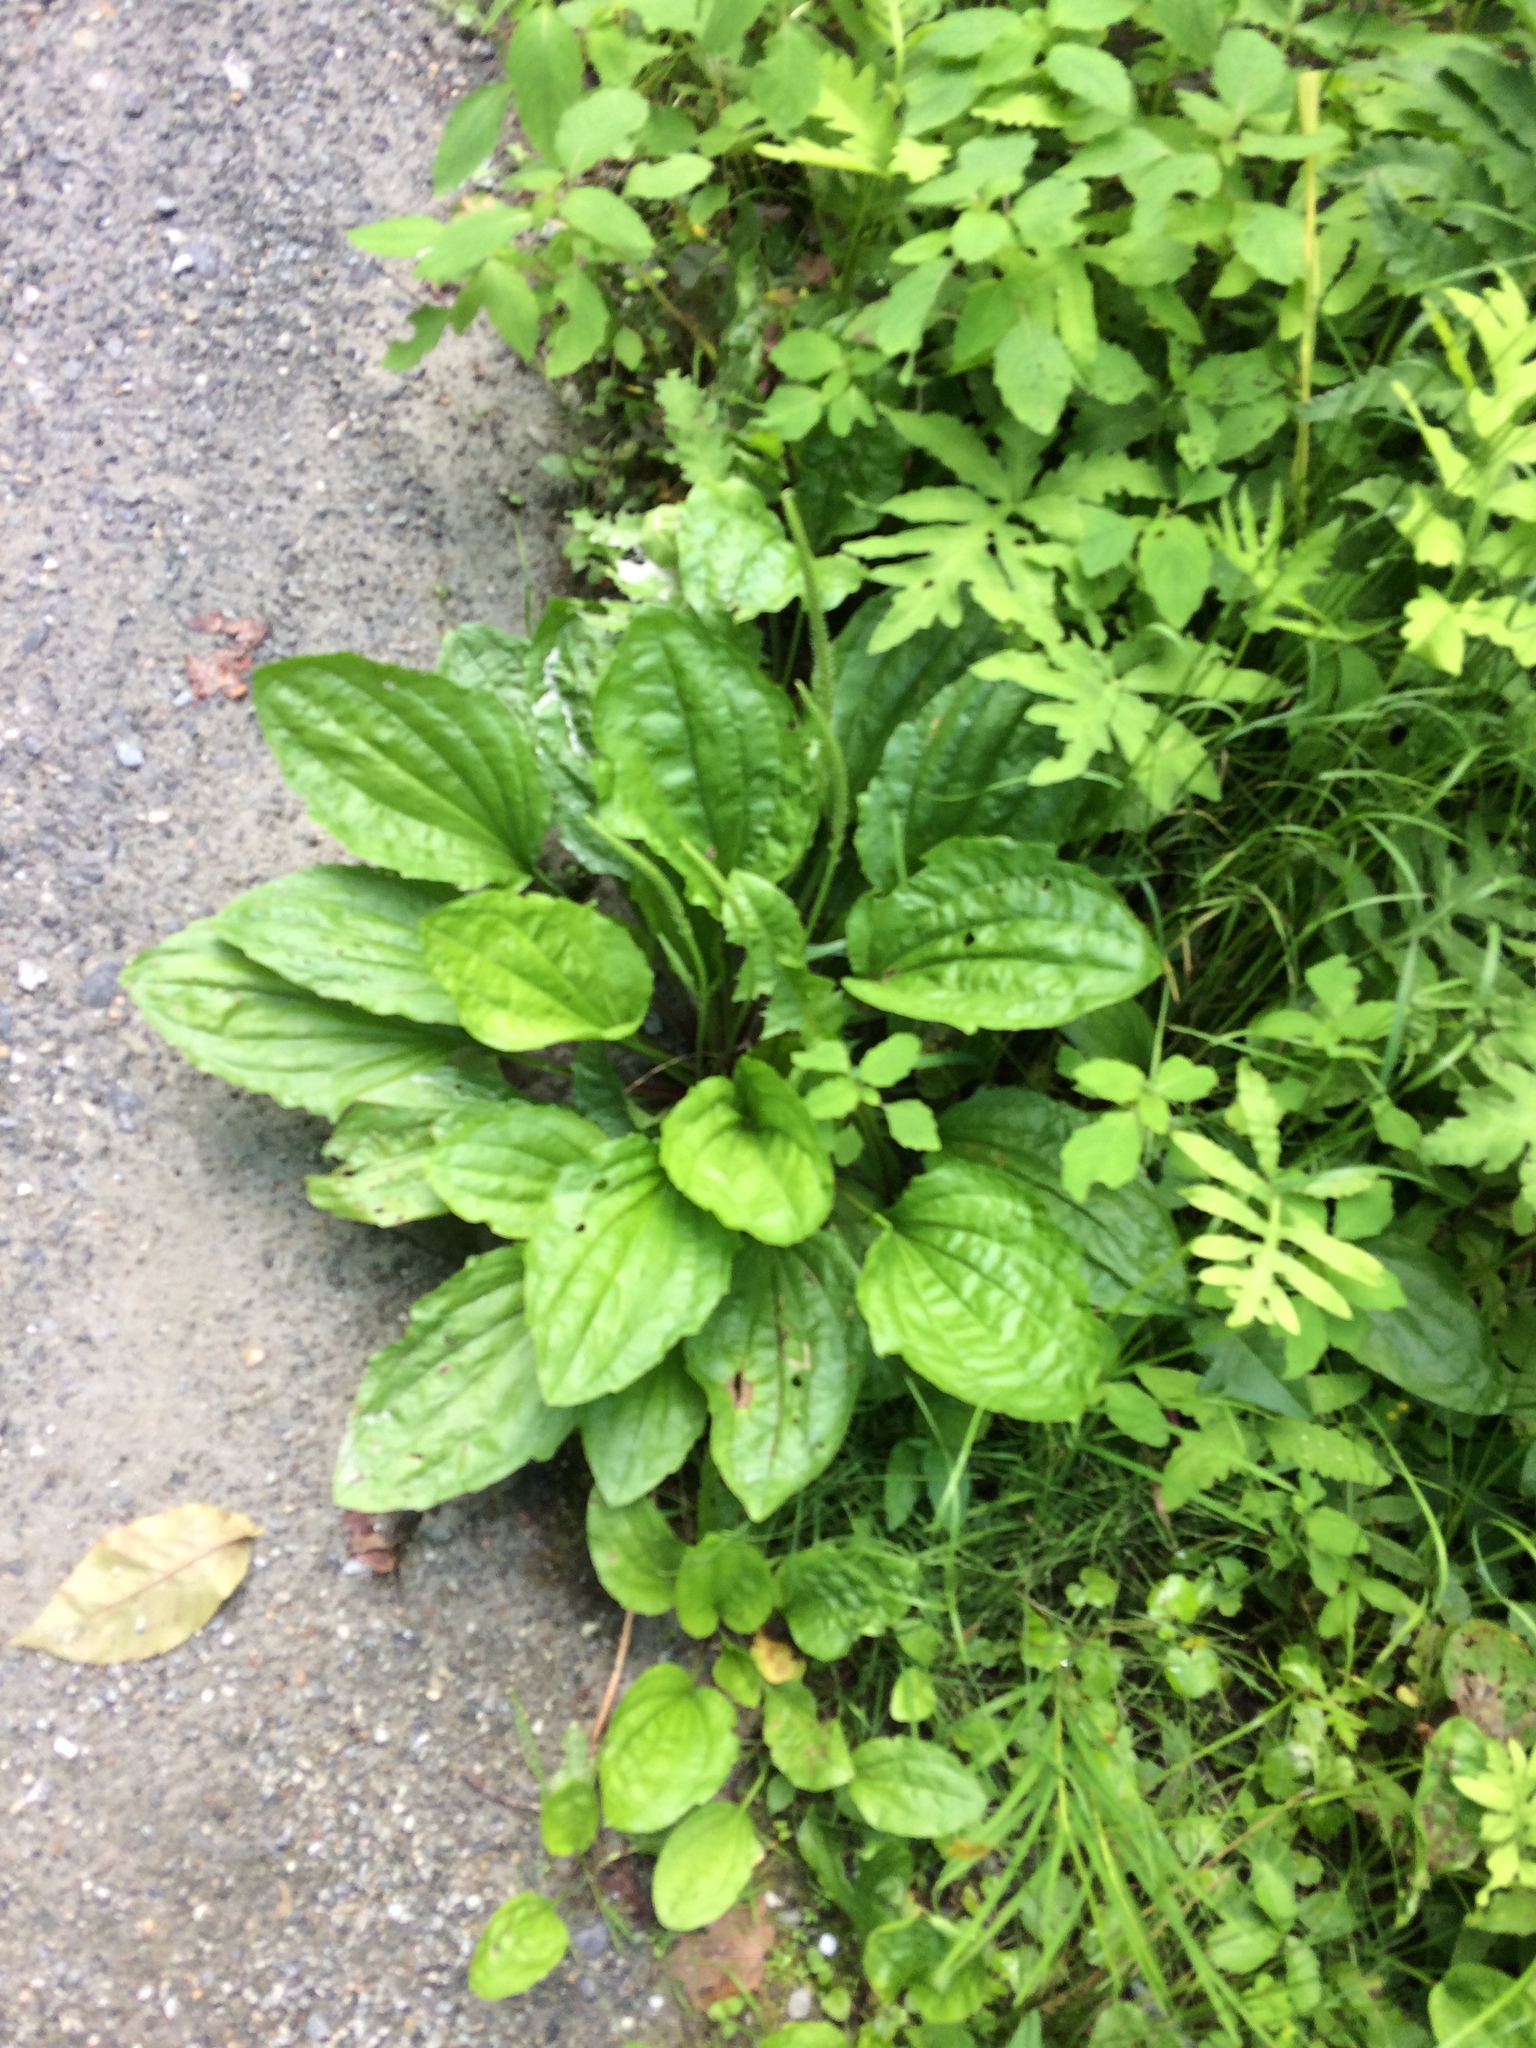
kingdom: Plantae
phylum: Tracheophyta
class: Magnoliopsida
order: Lamiales
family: Plantaginaceae
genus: Plantago
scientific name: Plantago major
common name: Common plantain
